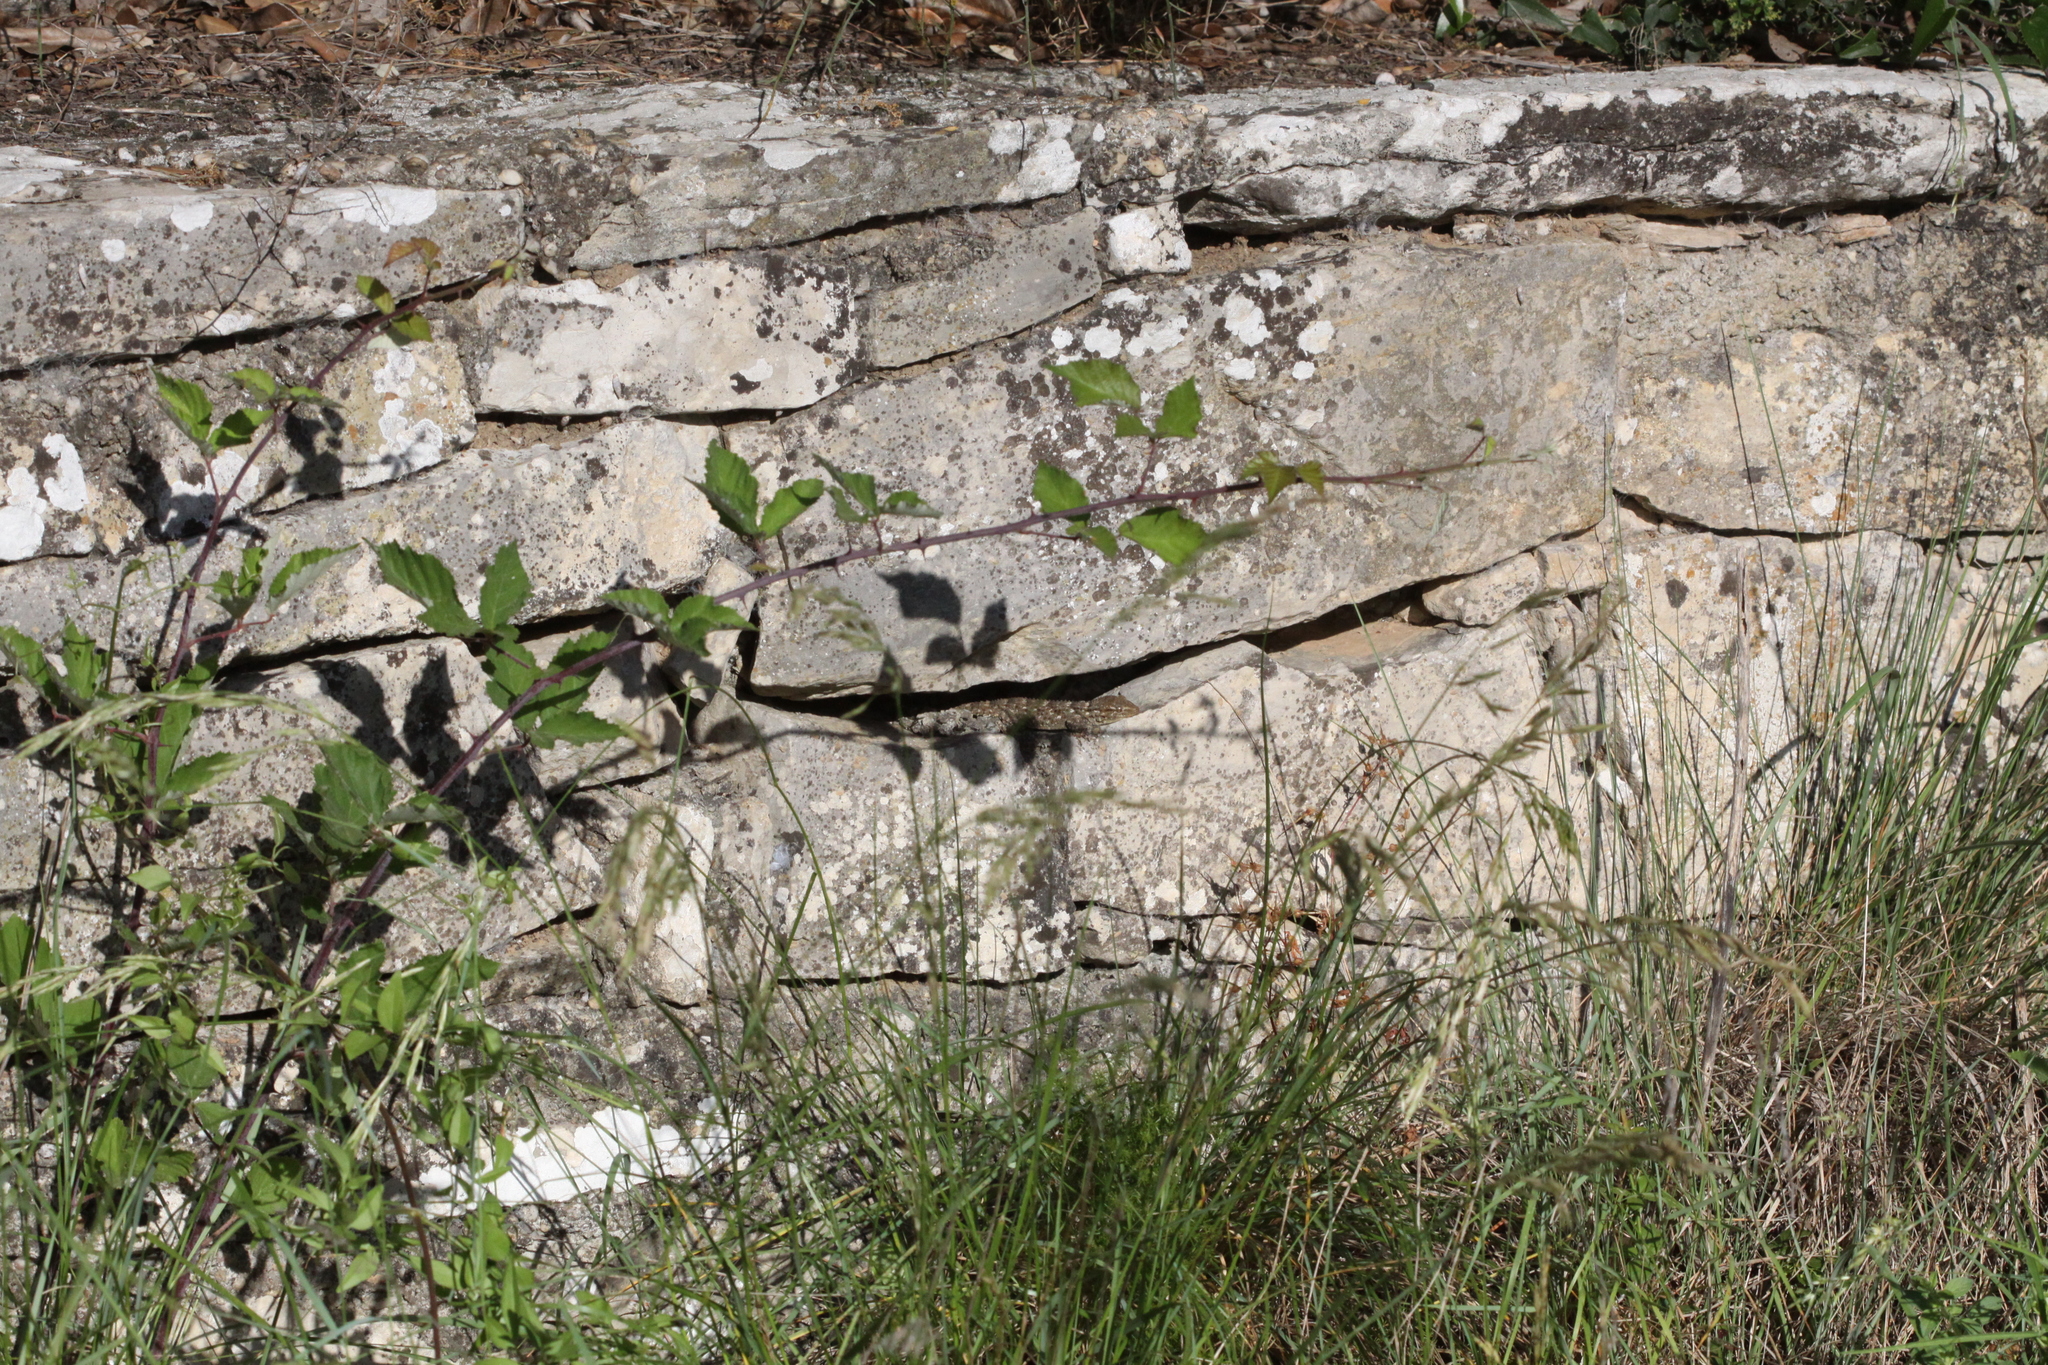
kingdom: Animalia
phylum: Chordata
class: Squamata
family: Phyllodactylidae
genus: Tarentola
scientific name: Tarentola mauritanica
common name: Moorish gecko
